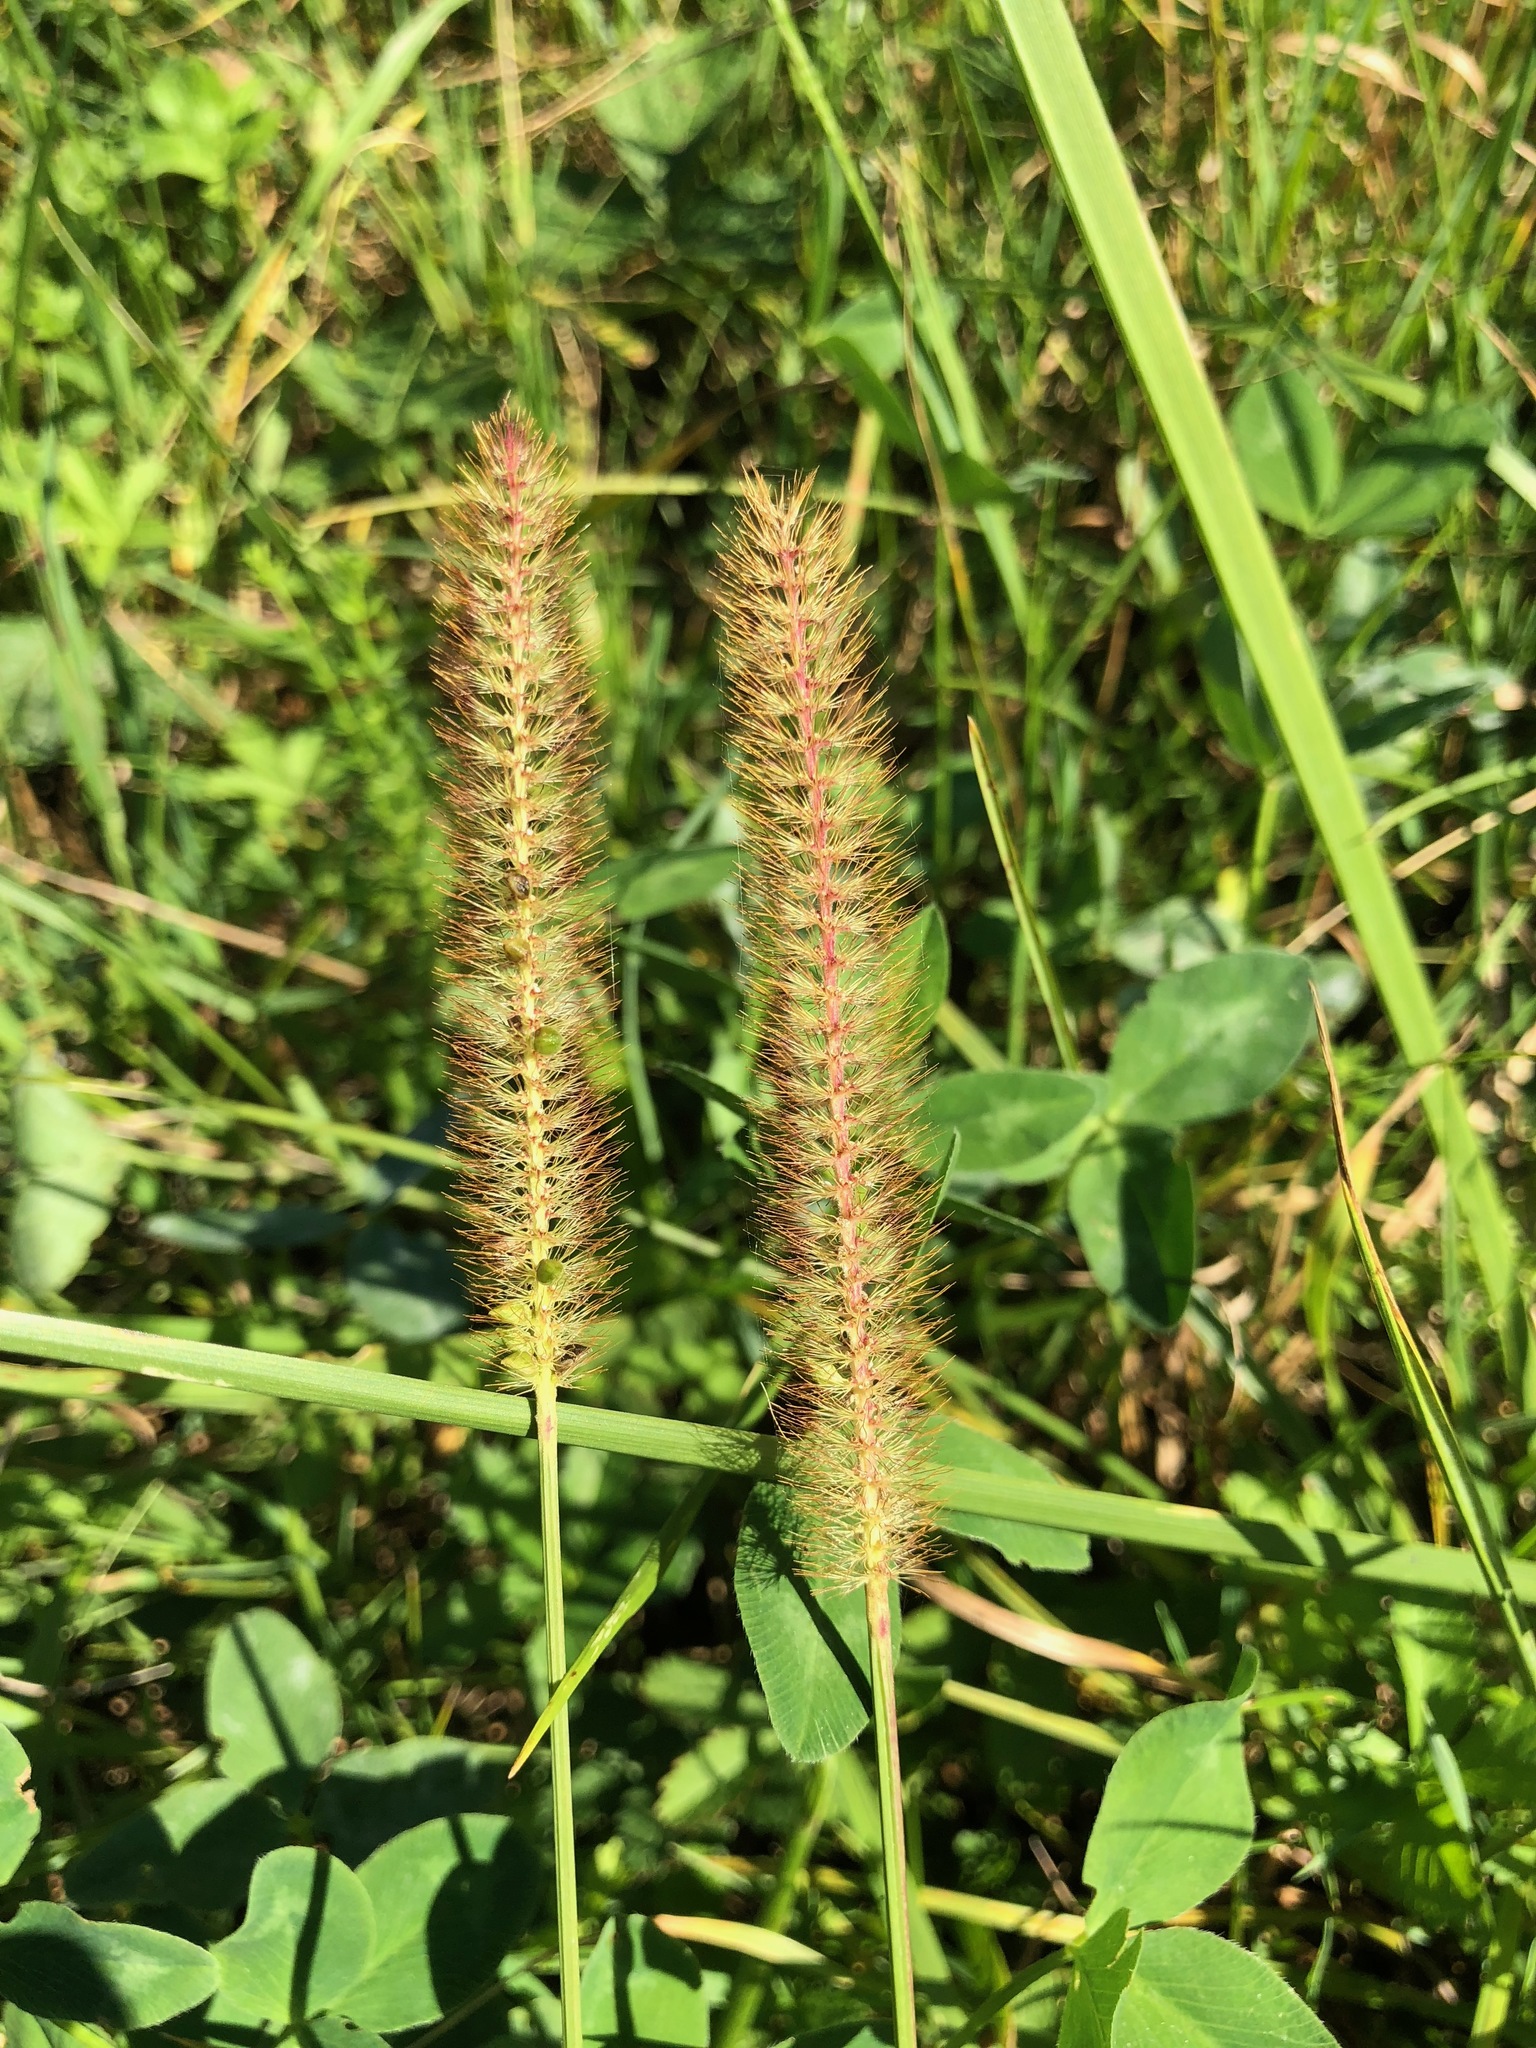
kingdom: Plantae
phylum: Tracheophyta
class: Liliopsida
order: Poales
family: Poaceae
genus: Setaria
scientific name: Setaria pumila
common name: Yellow bristle-grass
